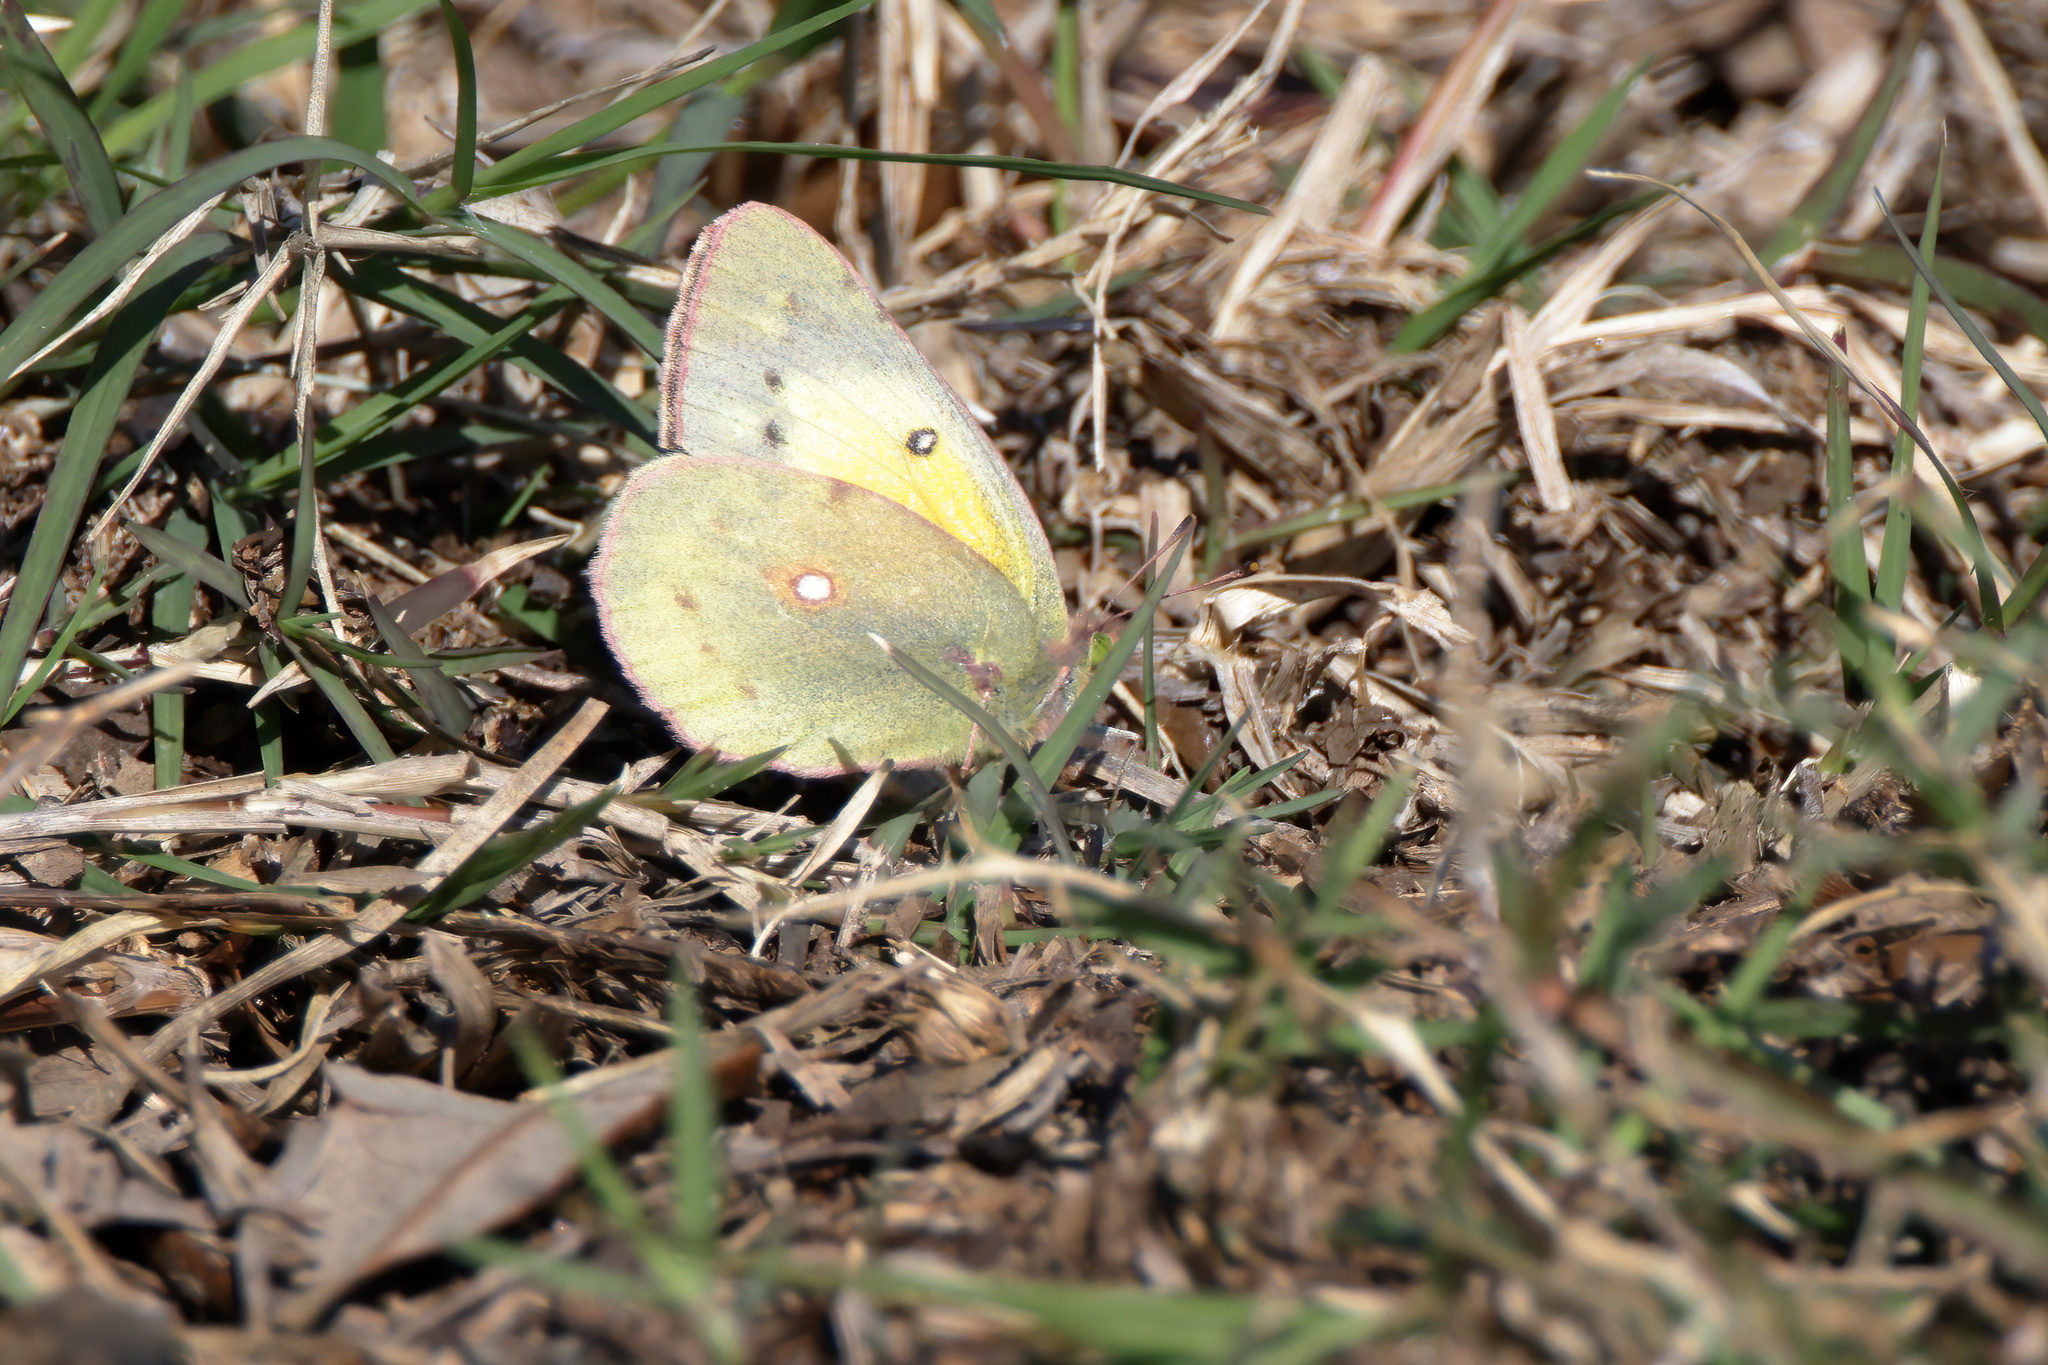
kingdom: Animalia
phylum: Arthropoda
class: Insecta
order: Lepidoptera
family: Pieridae
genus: Colias
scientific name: Colias eurytheme
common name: Alfalfa butterfly
